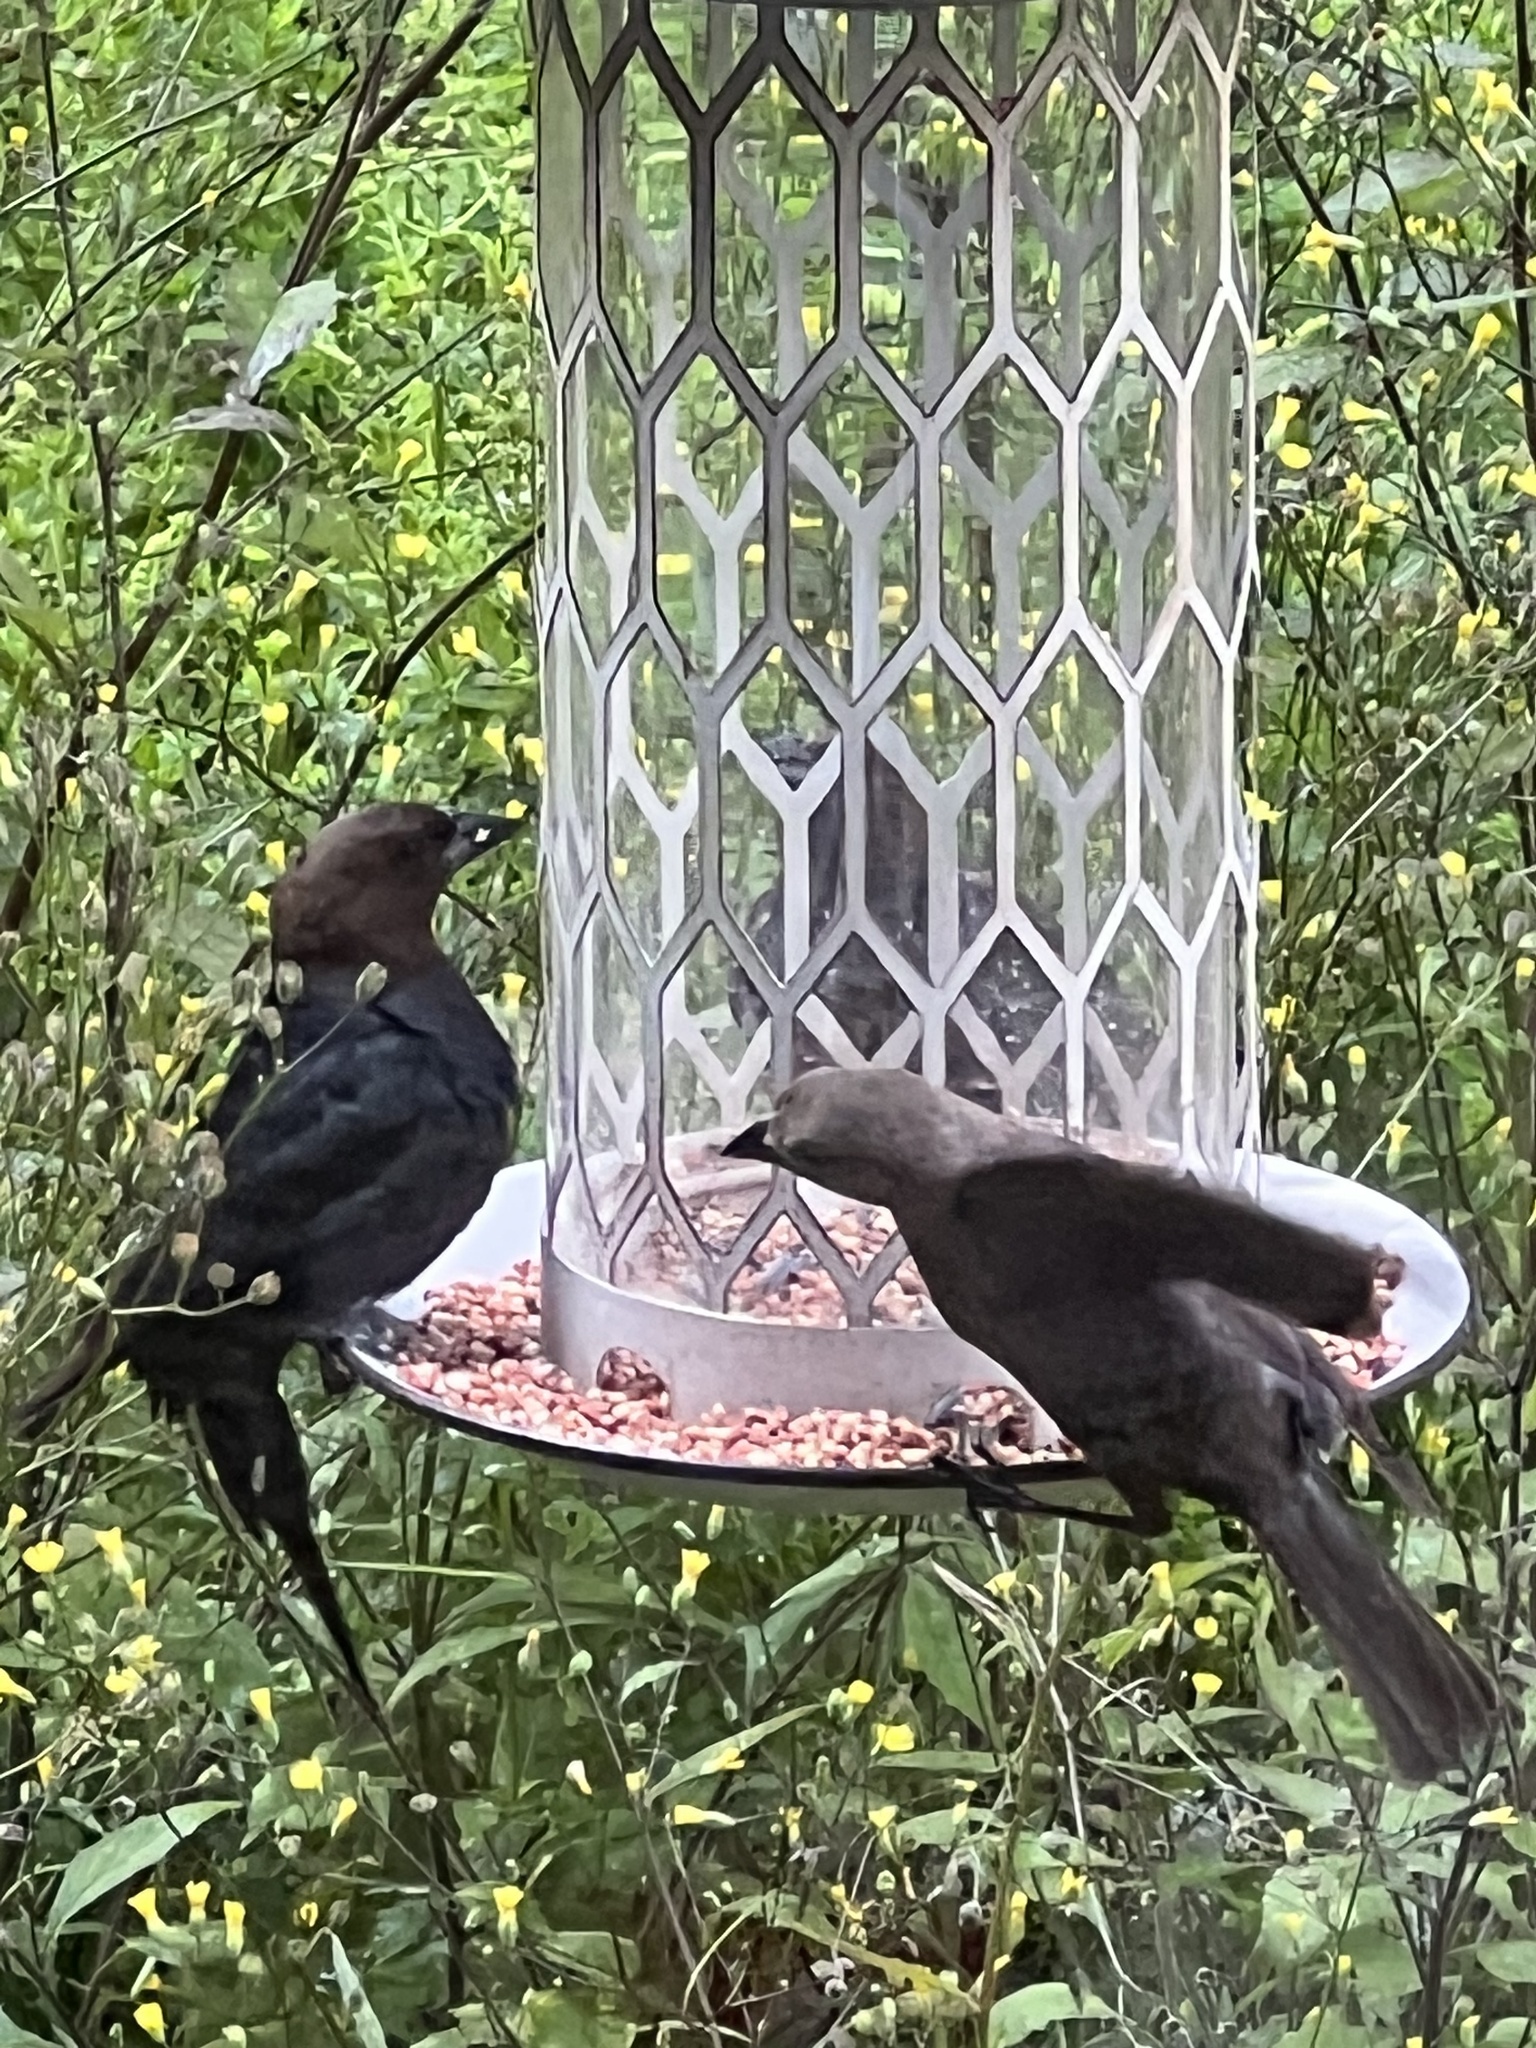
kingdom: Animalia
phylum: Chordata
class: Aves
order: Passeriformes
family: Icteridae
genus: Molothrus
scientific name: Molothrus ater
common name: Brown-headed cowbird
